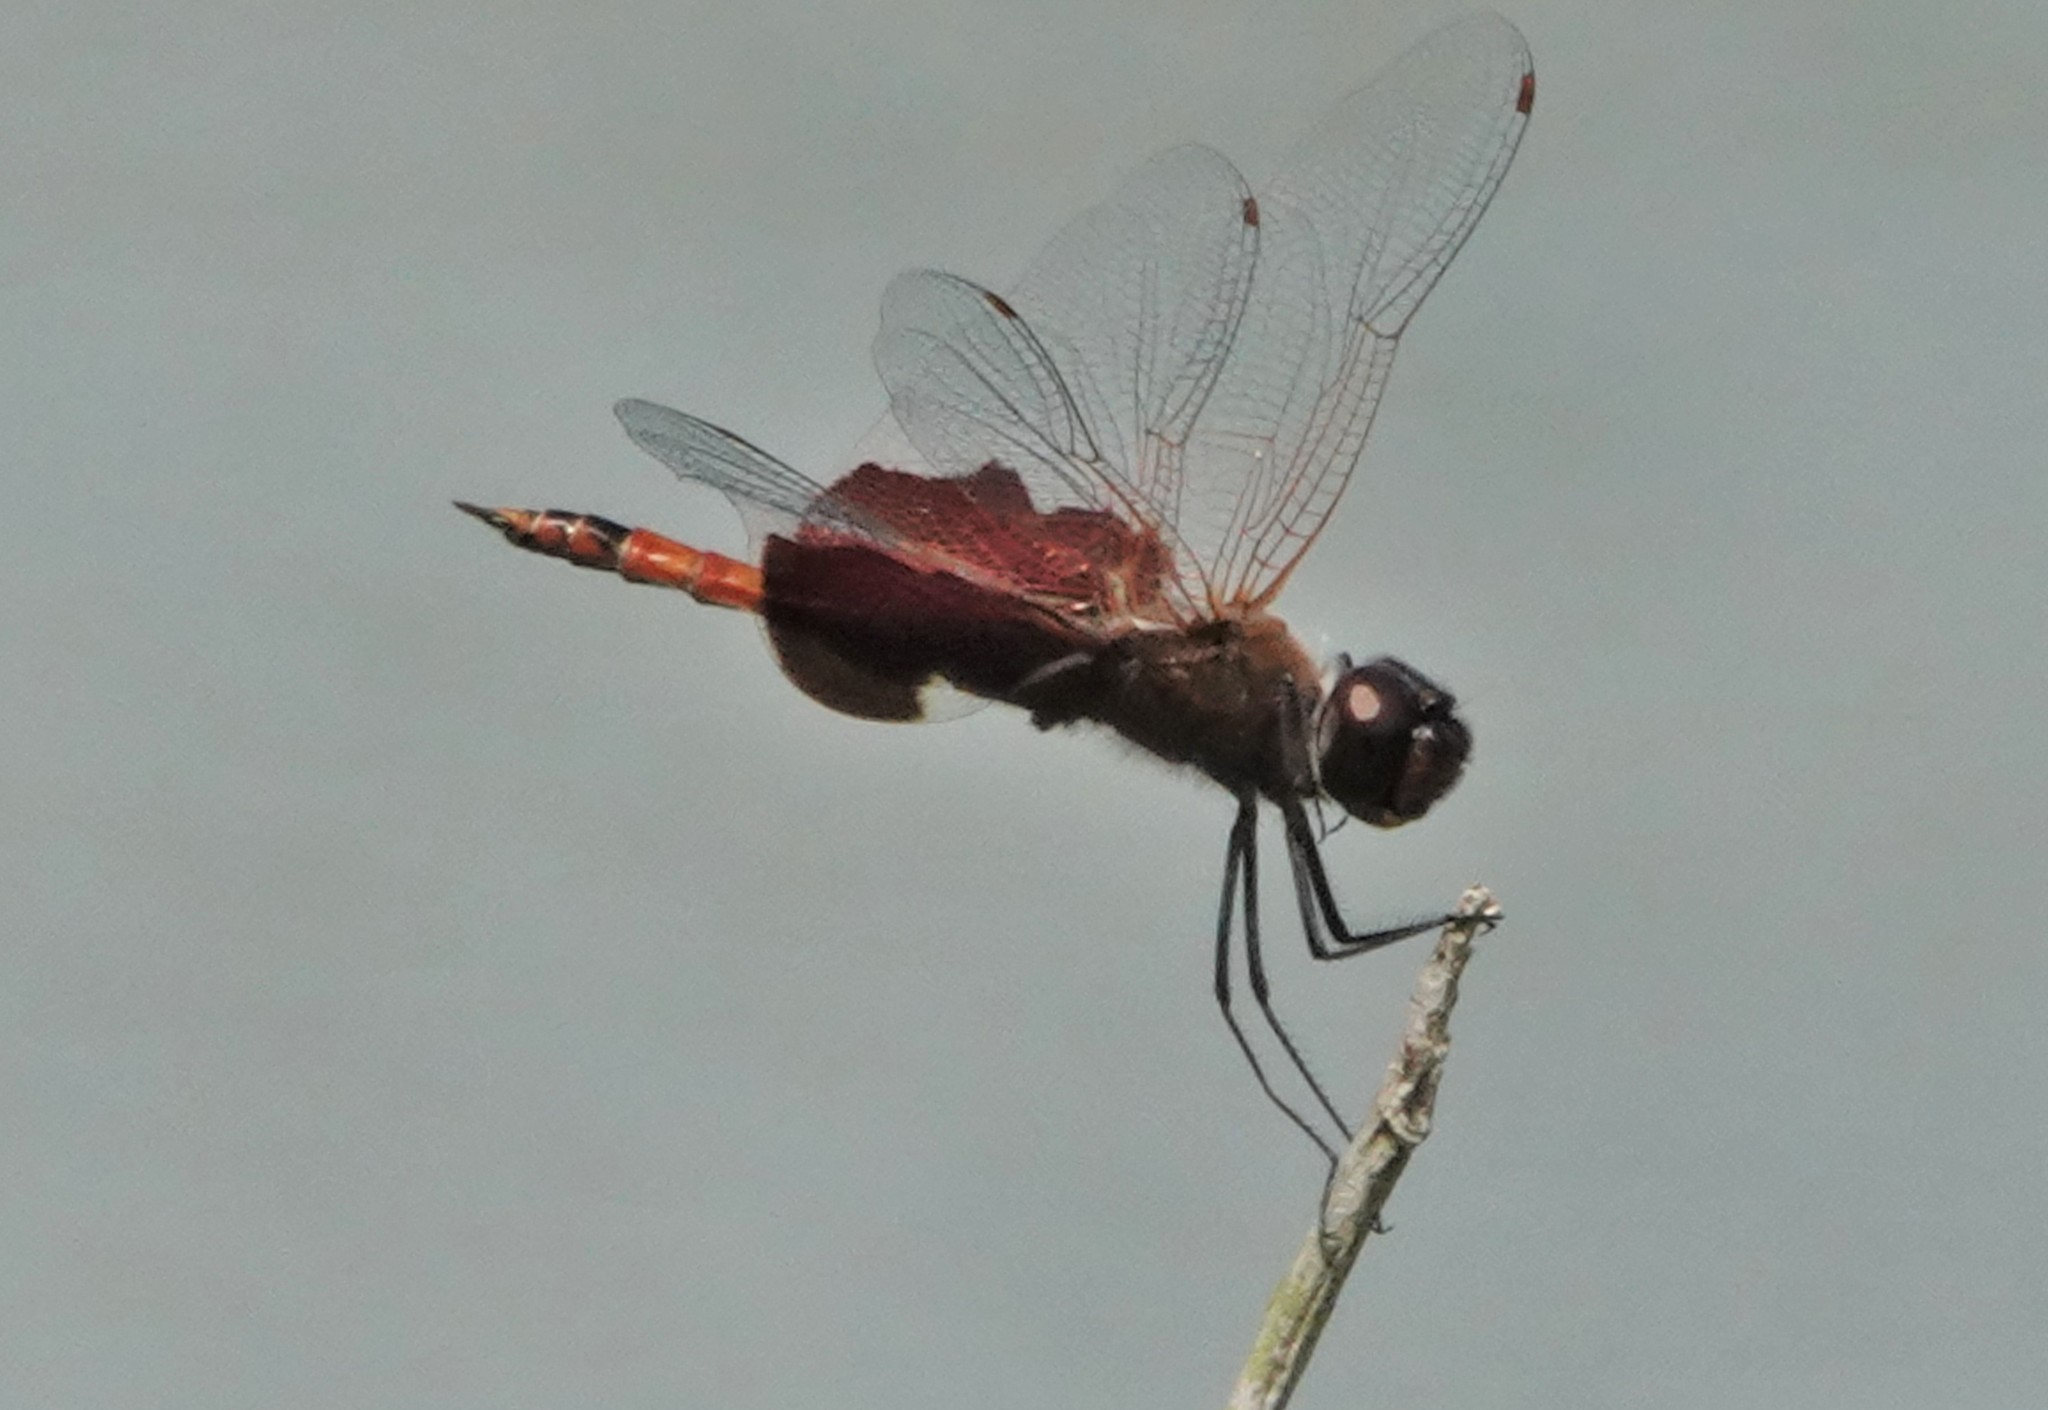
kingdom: Animalia
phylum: Arthropoda
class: Insecta
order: Odonata
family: Libellulidae
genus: Tramea
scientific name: Tramea carolina
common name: Carolina saddlebags
